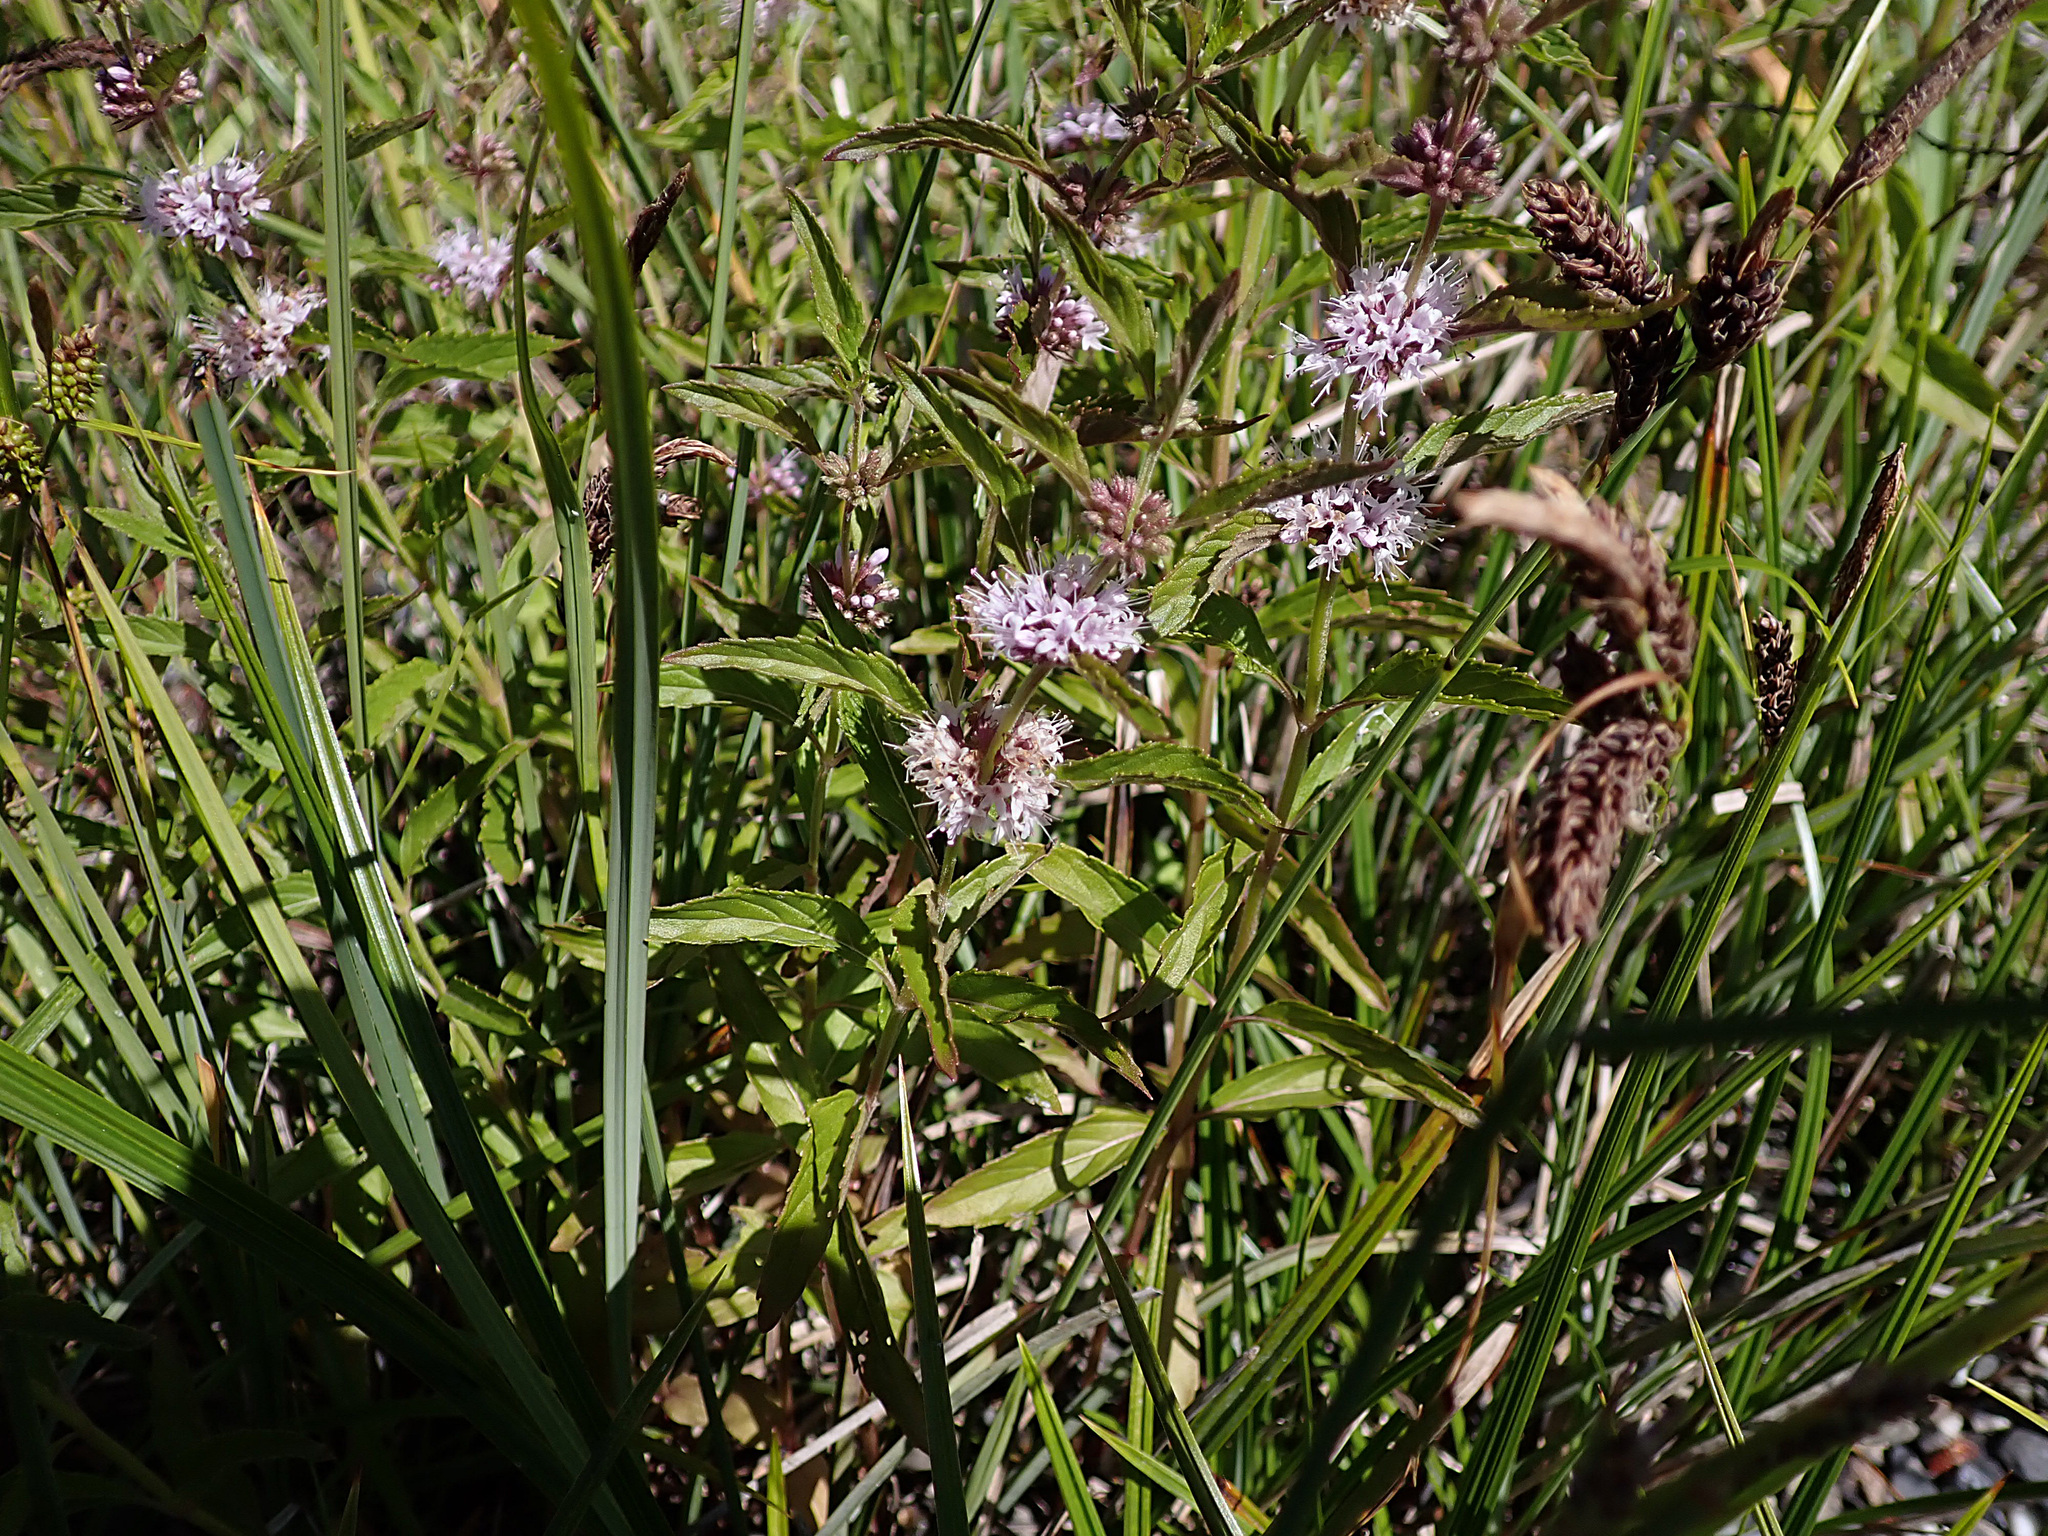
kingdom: Plantae
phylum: Tracheophyta
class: Magnoliopsida
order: Lamiales
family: Lamiaceae
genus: Mentha
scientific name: Mentha canadensis
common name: American corn mint
